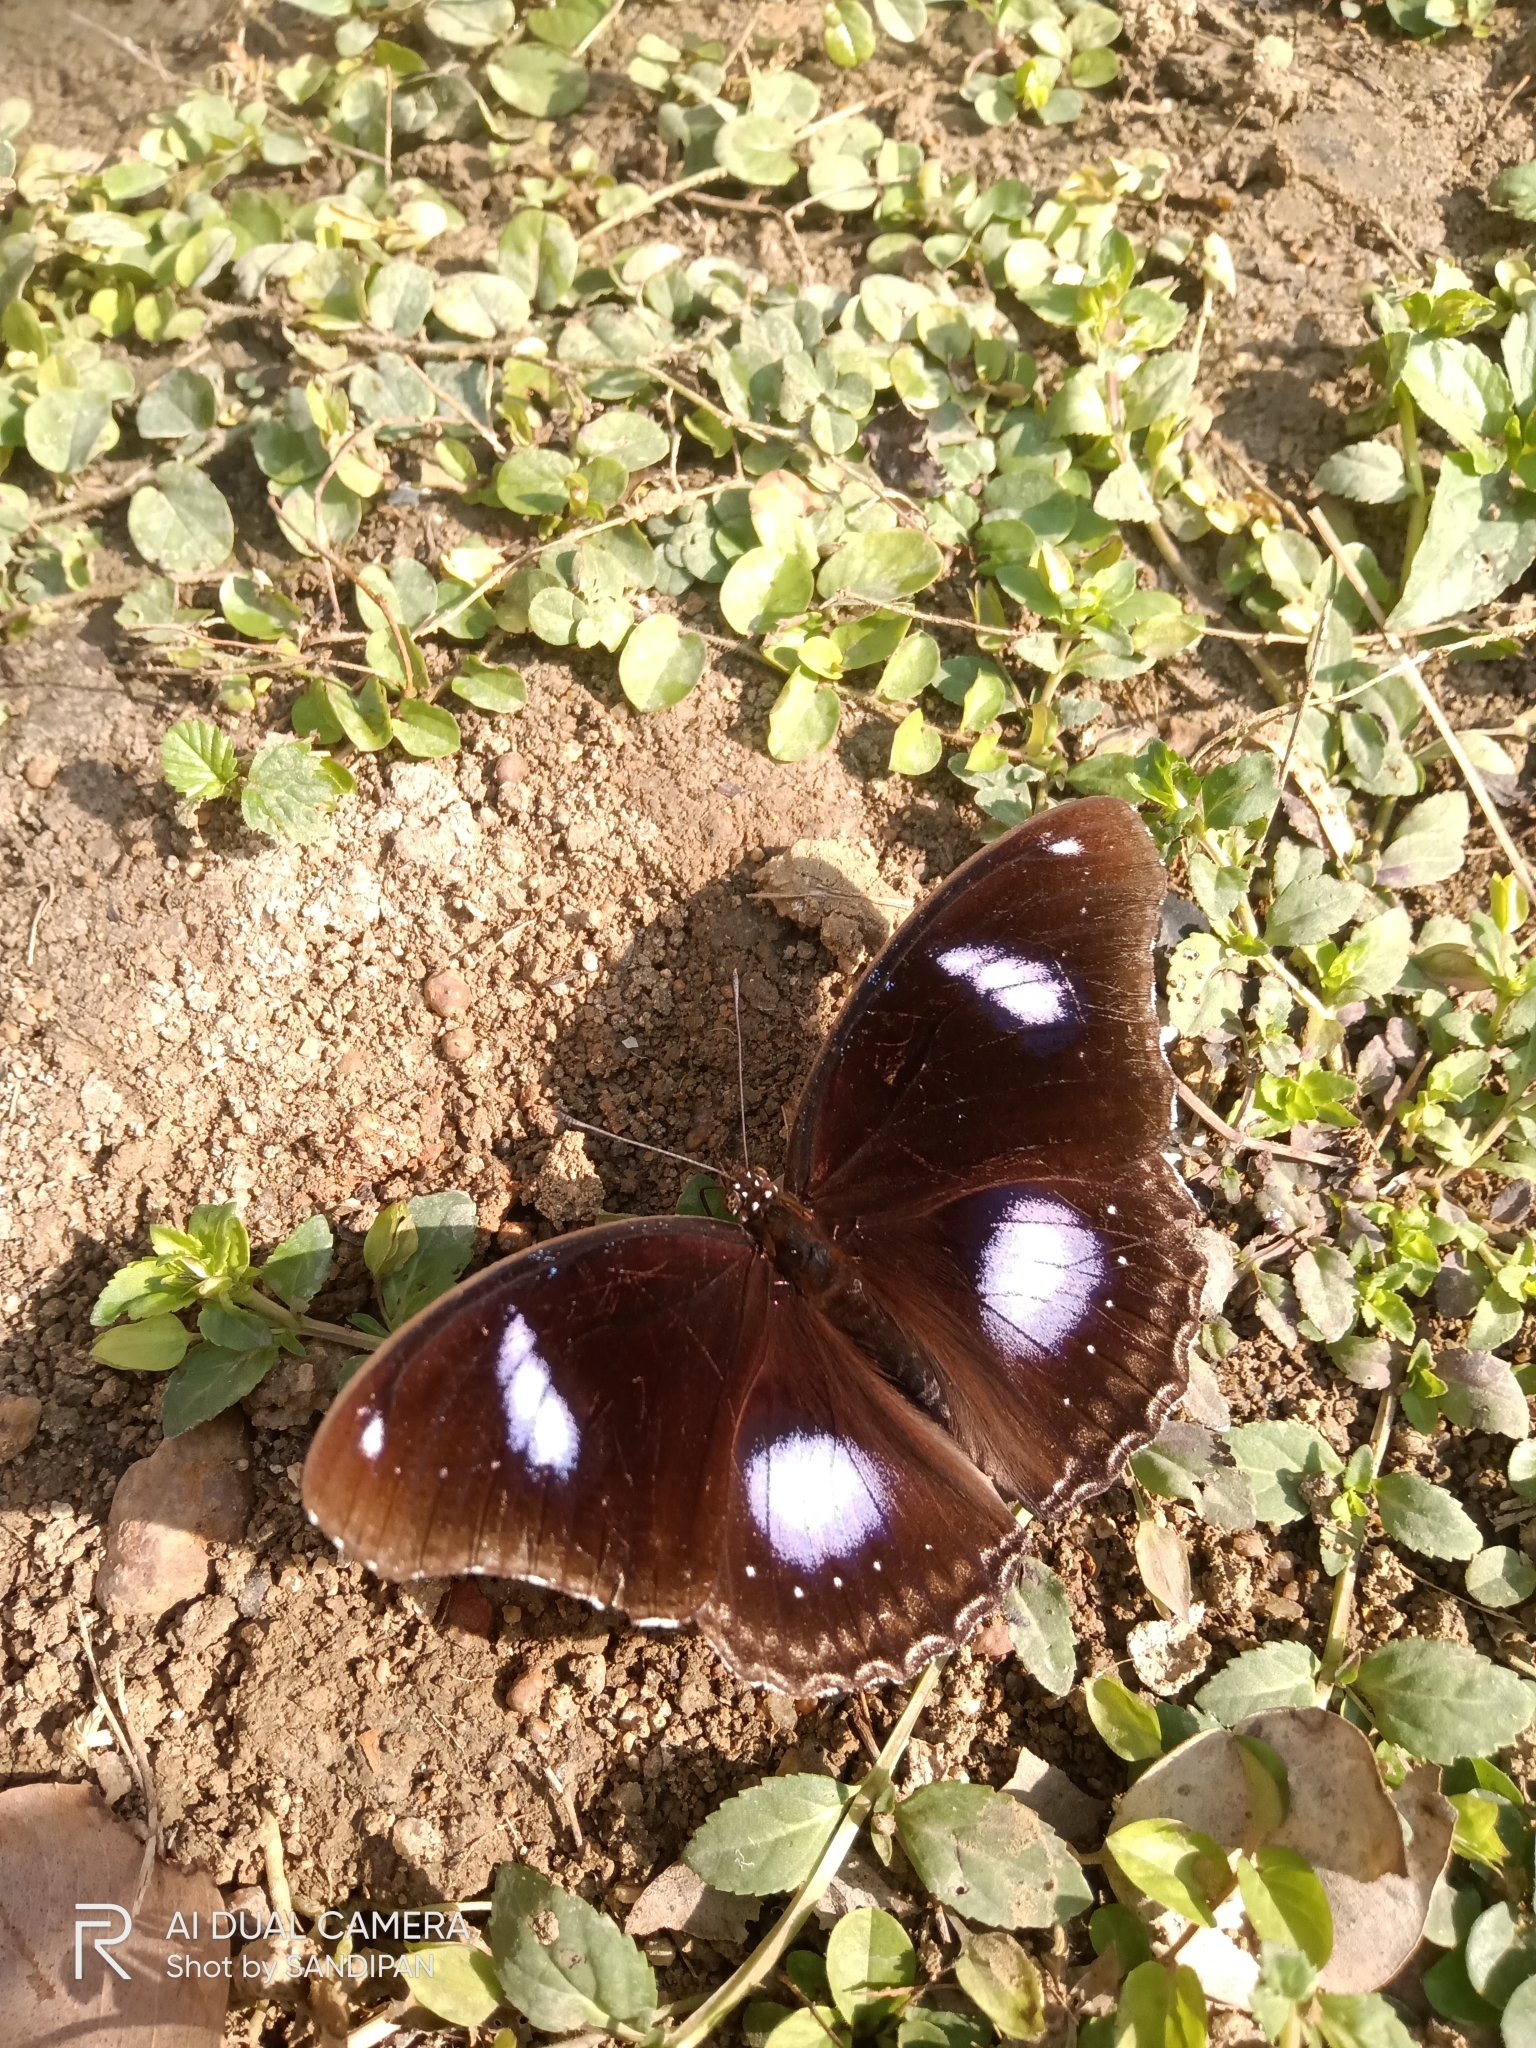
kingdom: Animalia
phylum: Arthropoda
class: Insecta
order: Lepidoptera
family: Nymphalidae
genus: Hypolimnas
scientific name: Hypolimnas bolina
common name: Great eggfly
